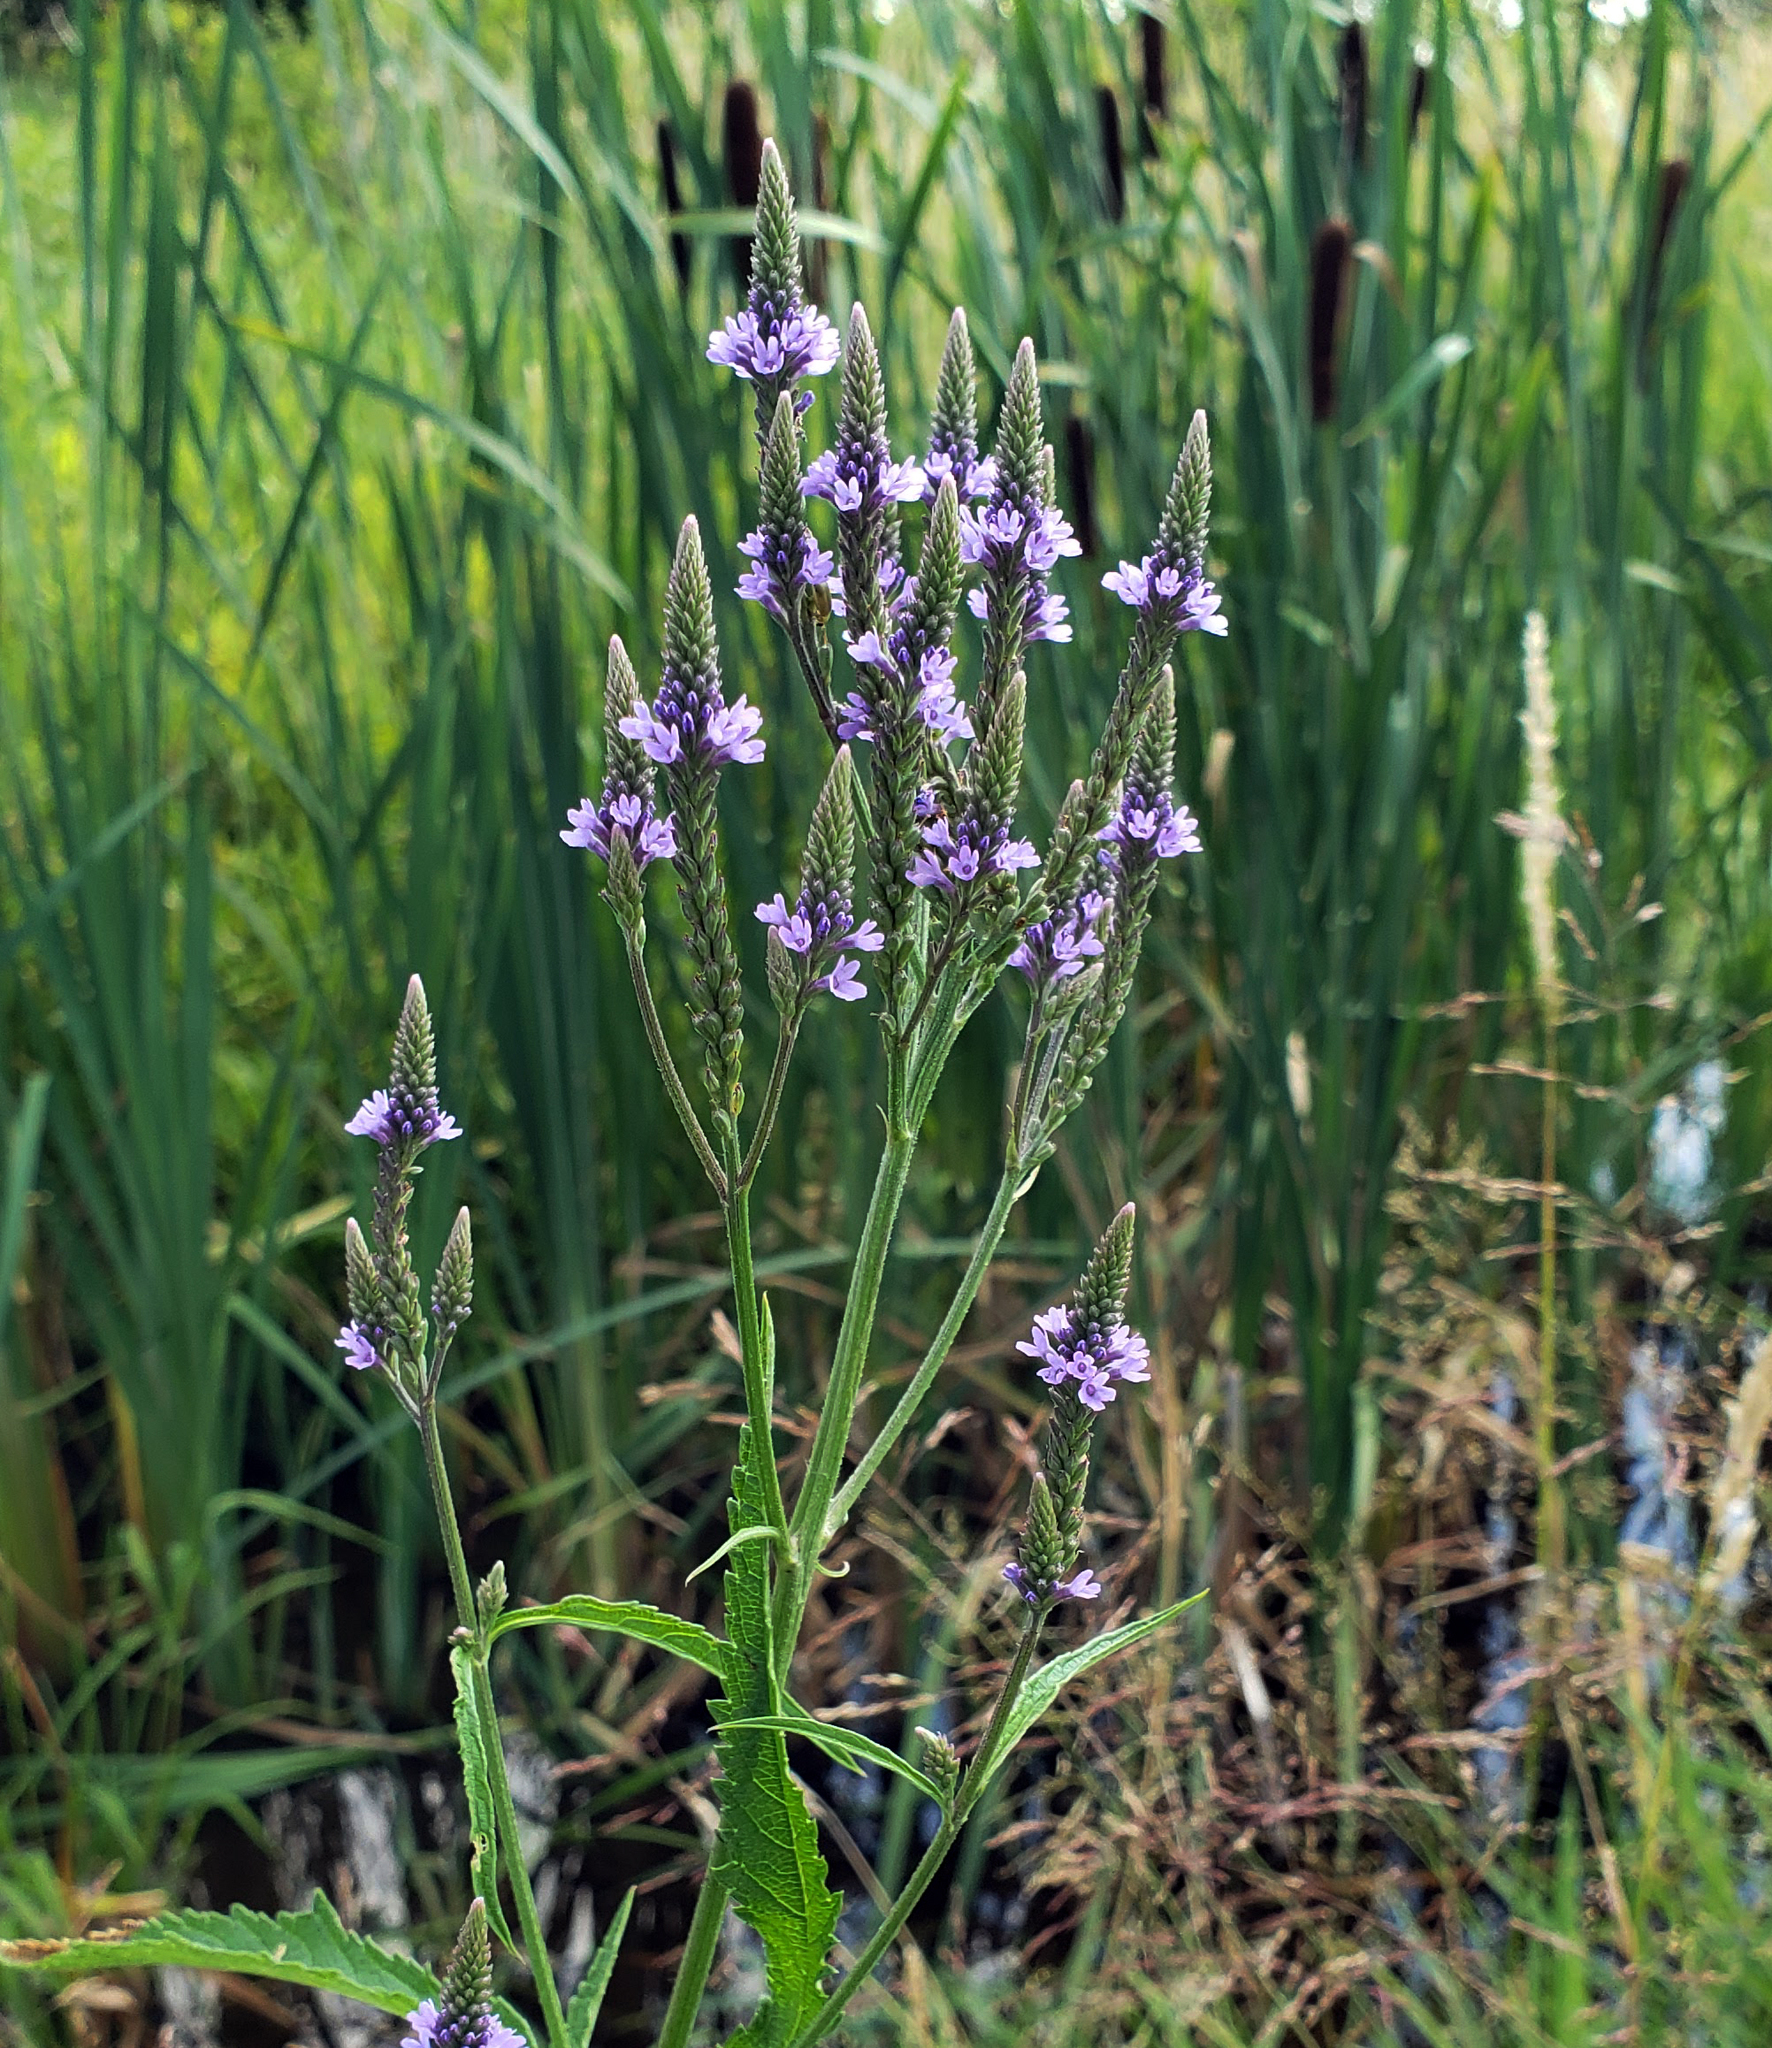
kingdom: Plantae
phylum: Tracheophyta
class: Magnoliopsida
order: Lamiales
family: Verbenaceae
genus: Verbena
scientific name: Verbena hastata
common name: American blue vervain
